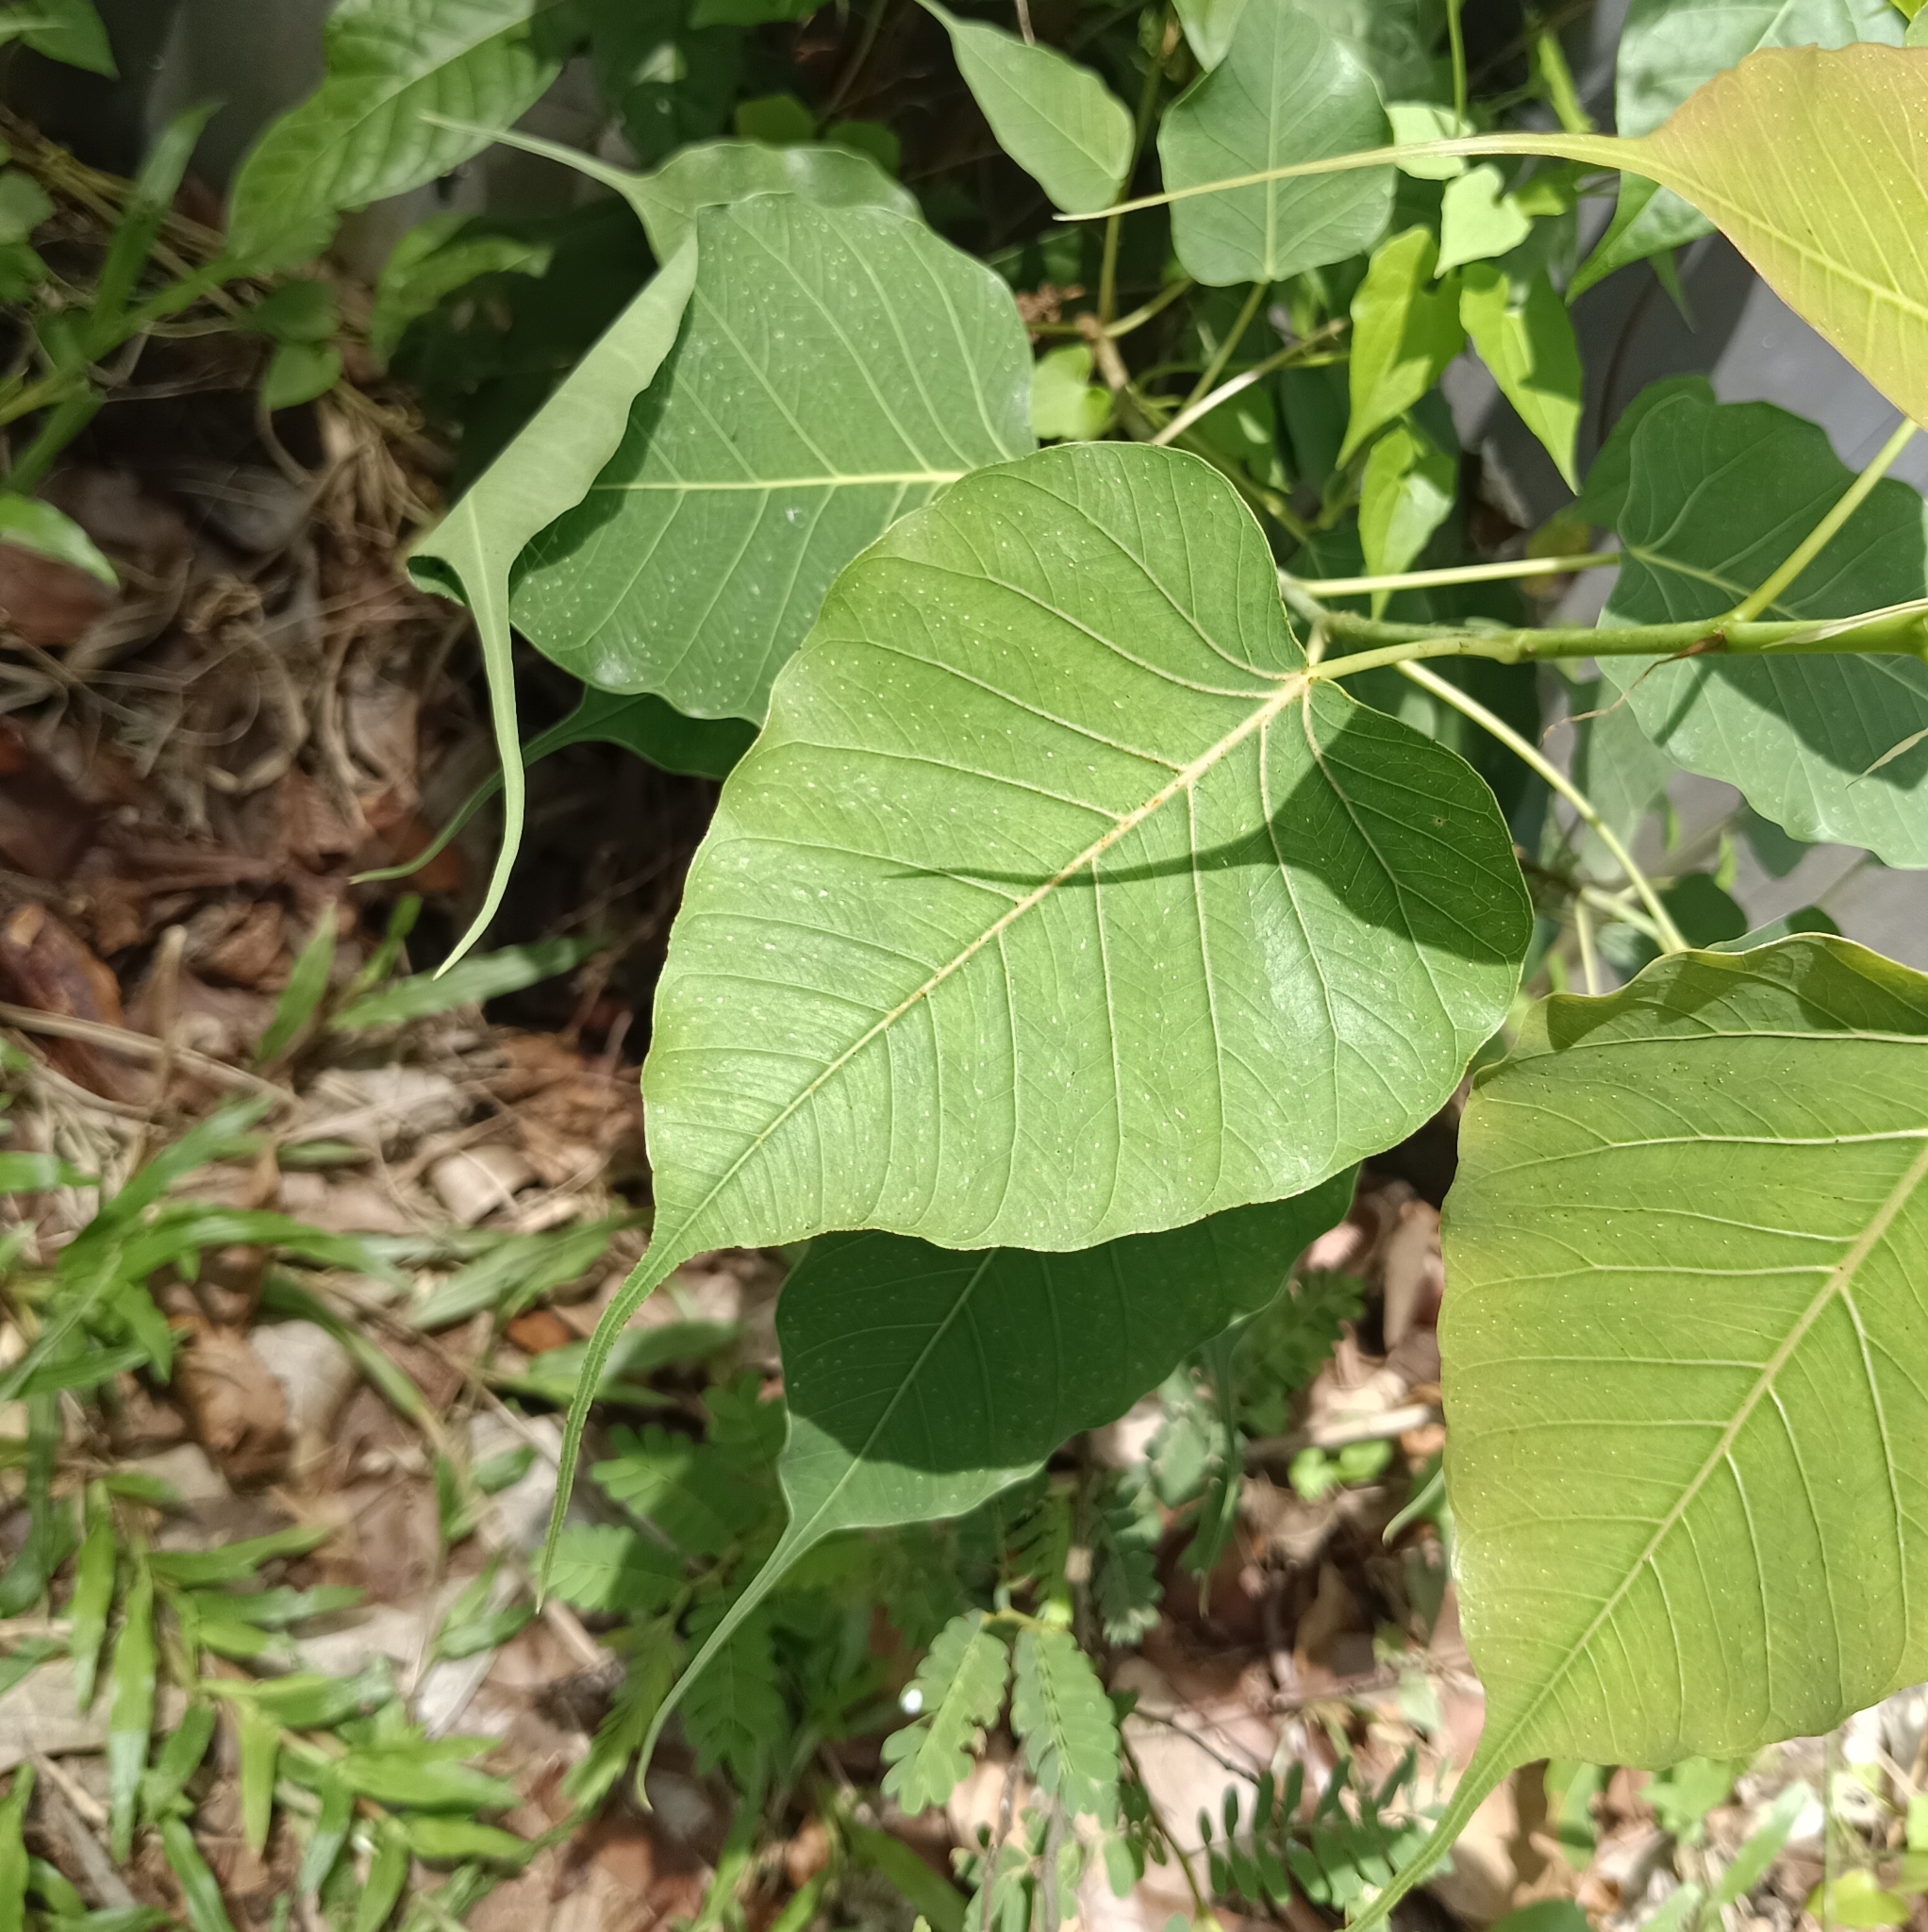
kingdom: Plantae
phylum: Tracheophyta
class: Magnoliopsida
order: Rosales
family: Moraceae
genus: Ficus
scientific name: Ficus religiosa
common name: Bodhi tree
